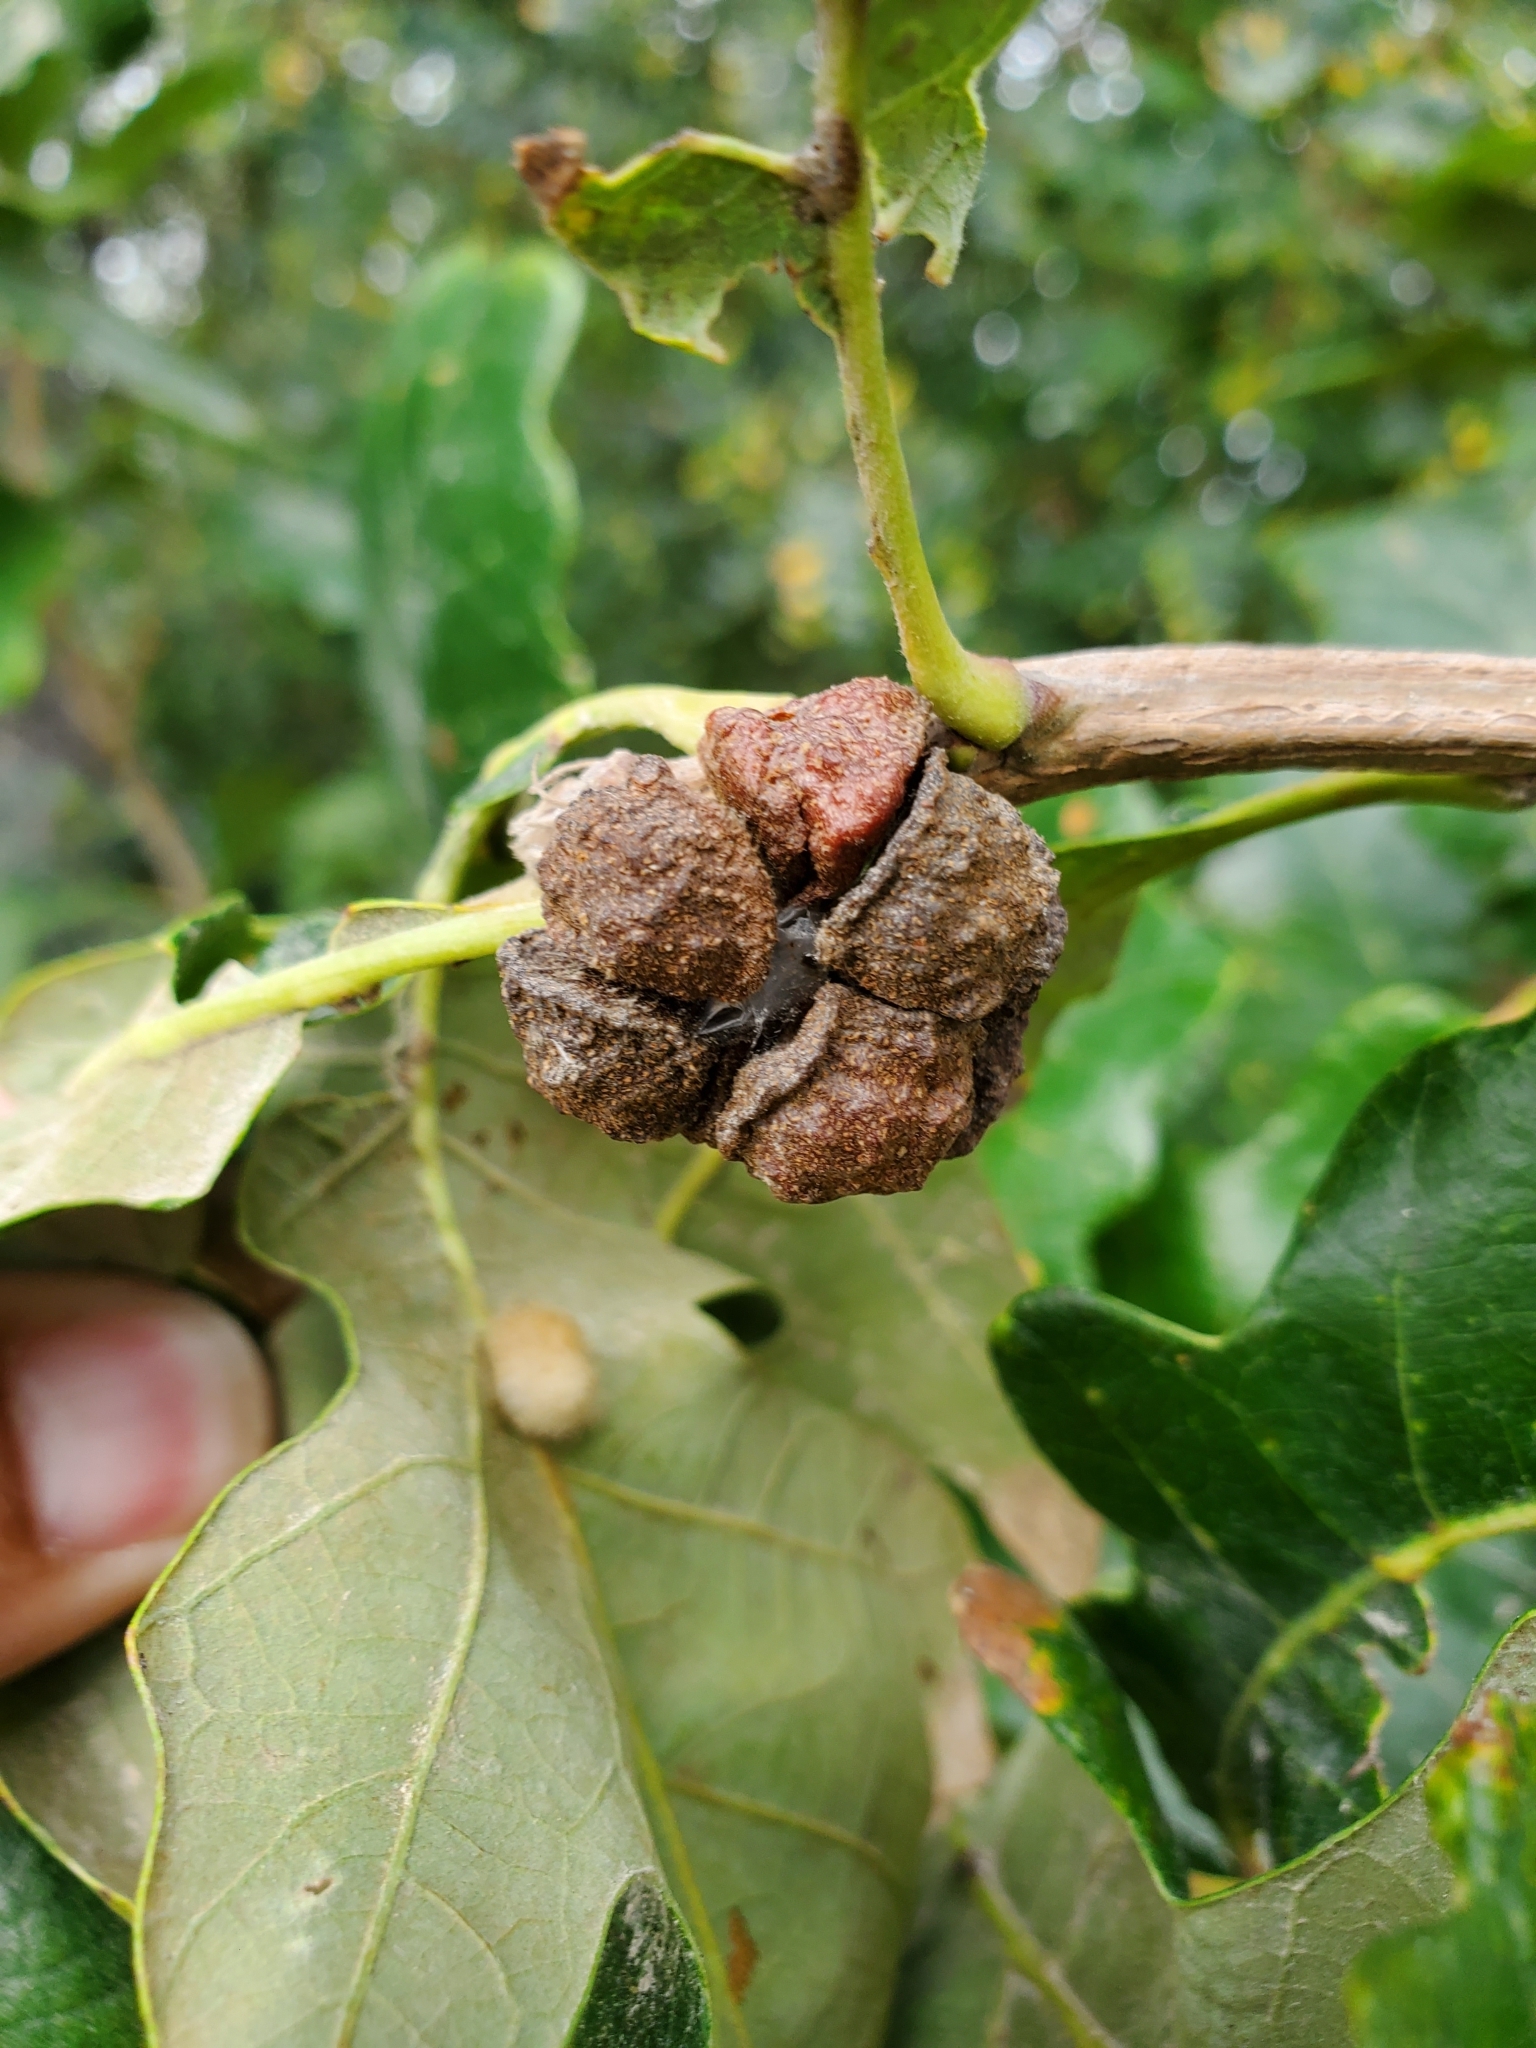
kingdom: Animalia
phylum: Arthropoda
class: Insecta
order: Hymenoptera
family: Cynipidae
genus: Andricus
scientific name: Andricus
